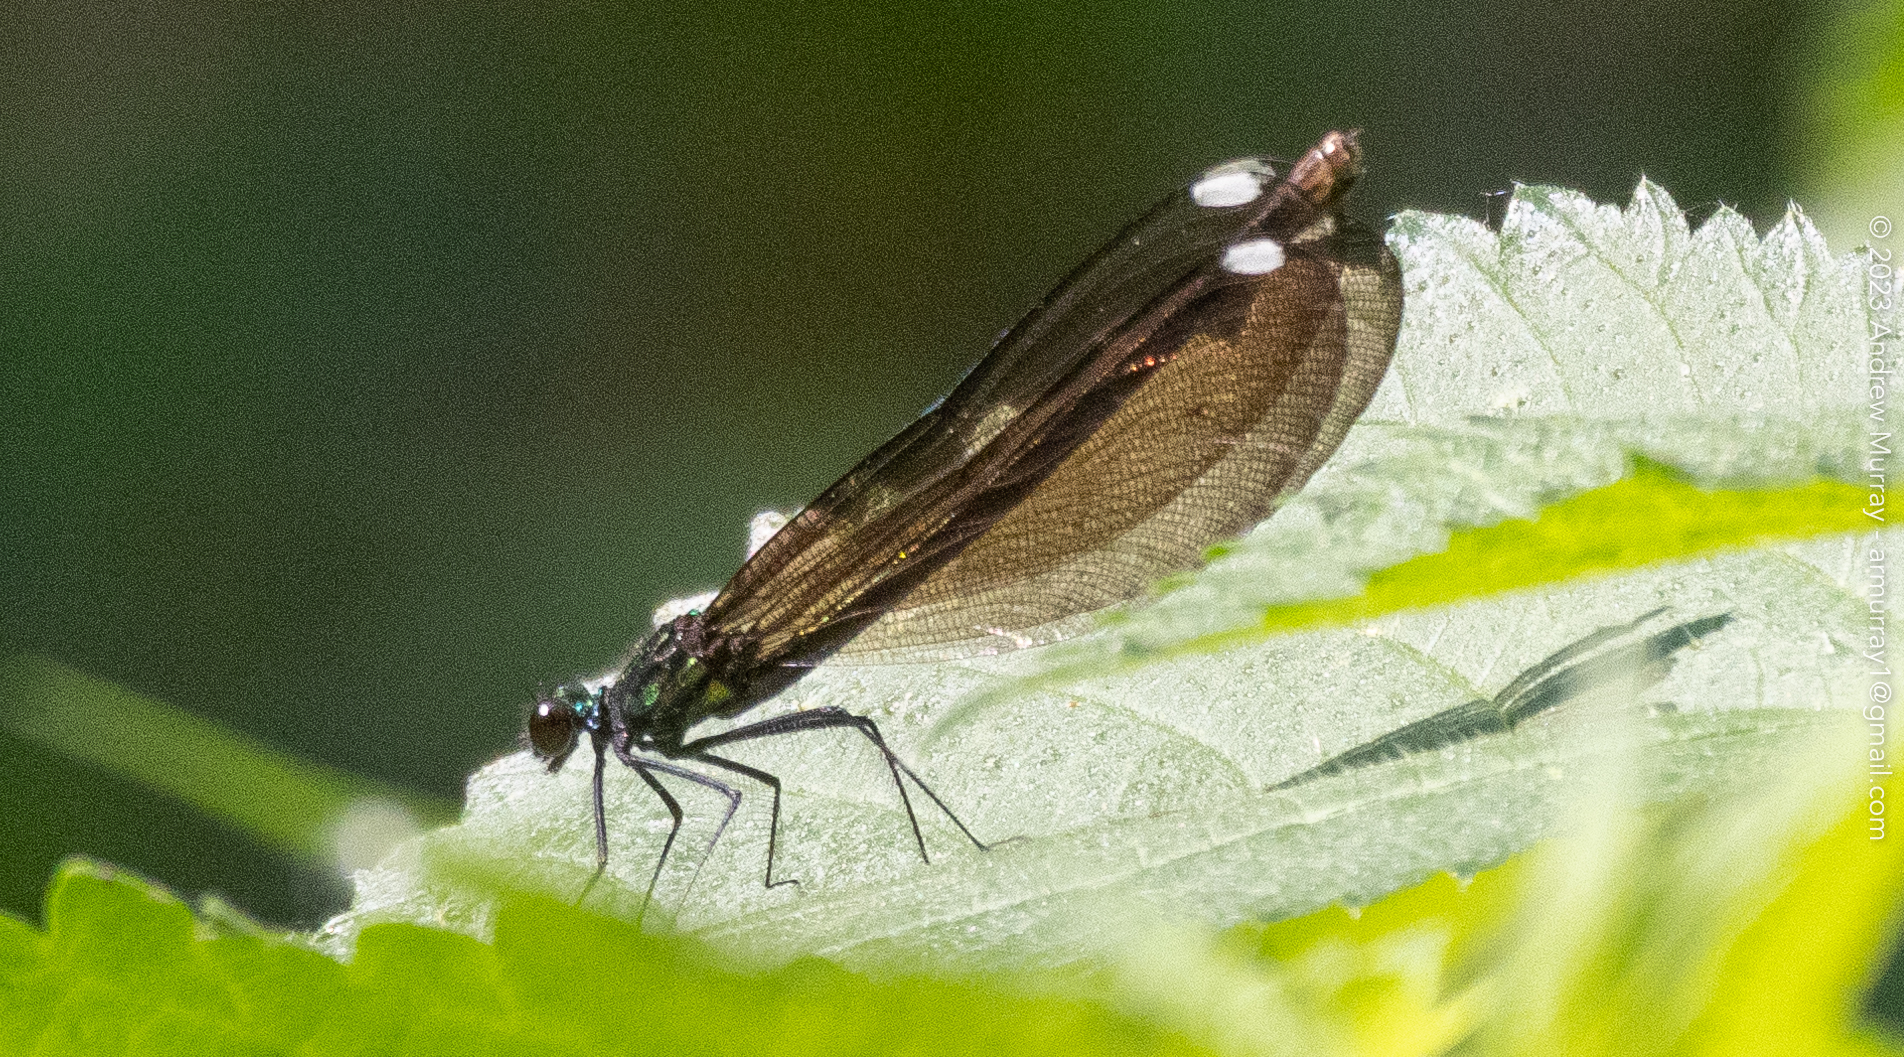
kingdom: Animalia
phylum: Arthropoda
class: Insecta
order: Odonata
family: Calopterygidae
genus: Calopteryx
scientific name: Calopteryx maculata
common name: Ebony jewelwing
